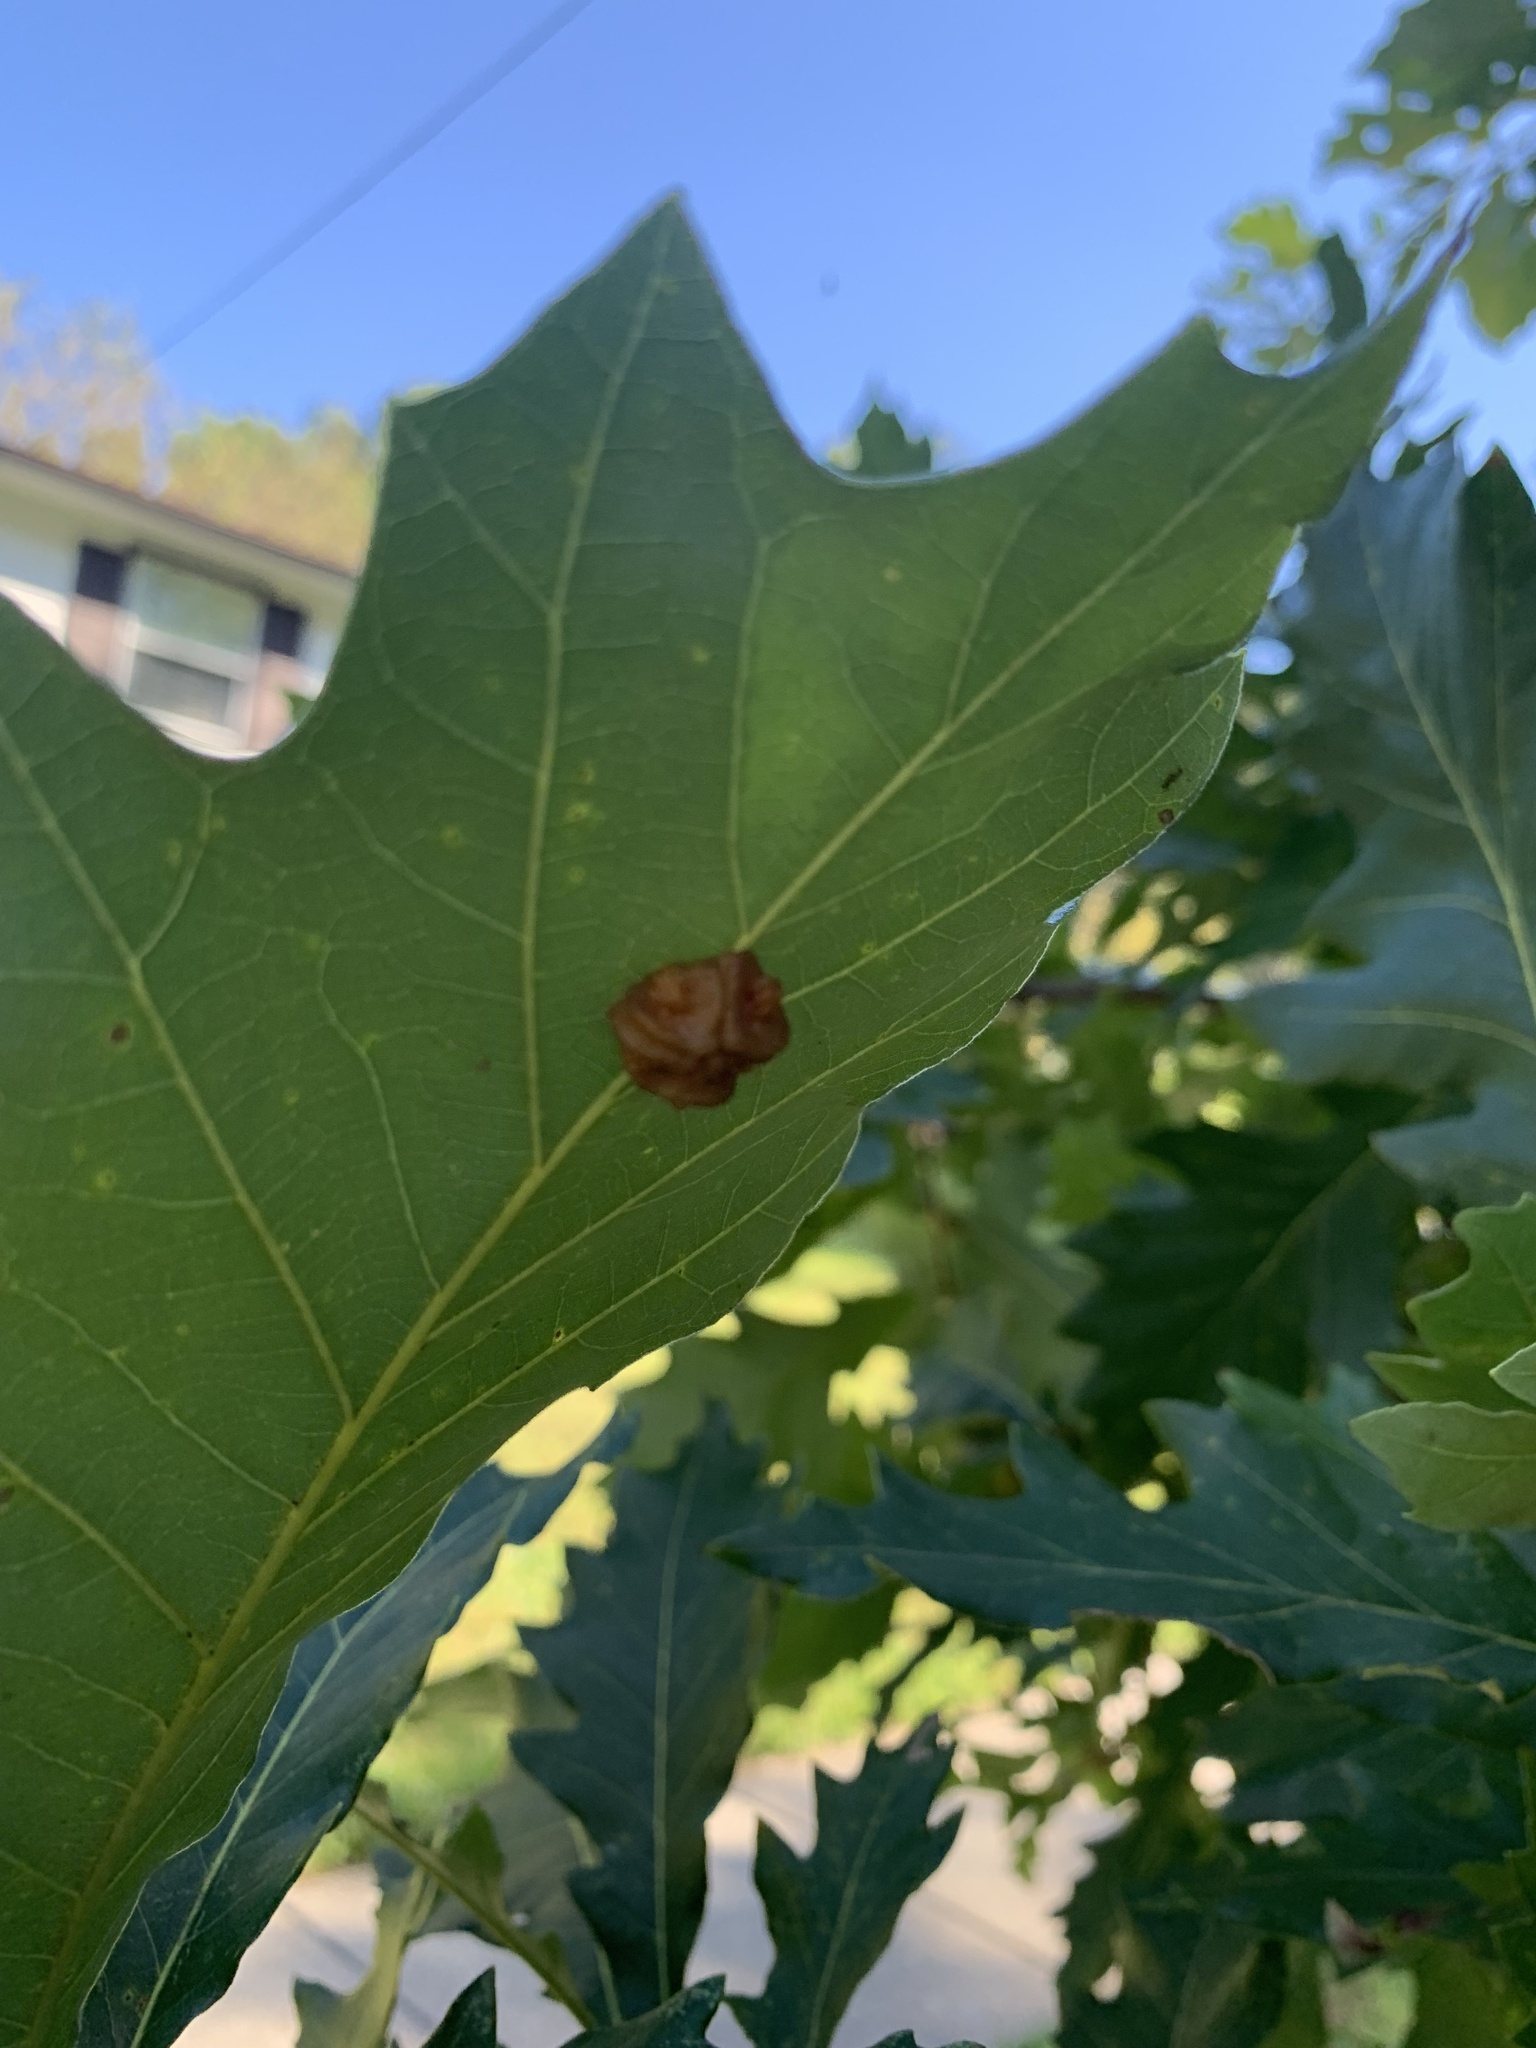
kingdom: Animalia
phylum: Arthropoda
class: Insecta
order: Hymenoptera
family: Cynipidae
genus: Andricus
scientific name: Andricus
